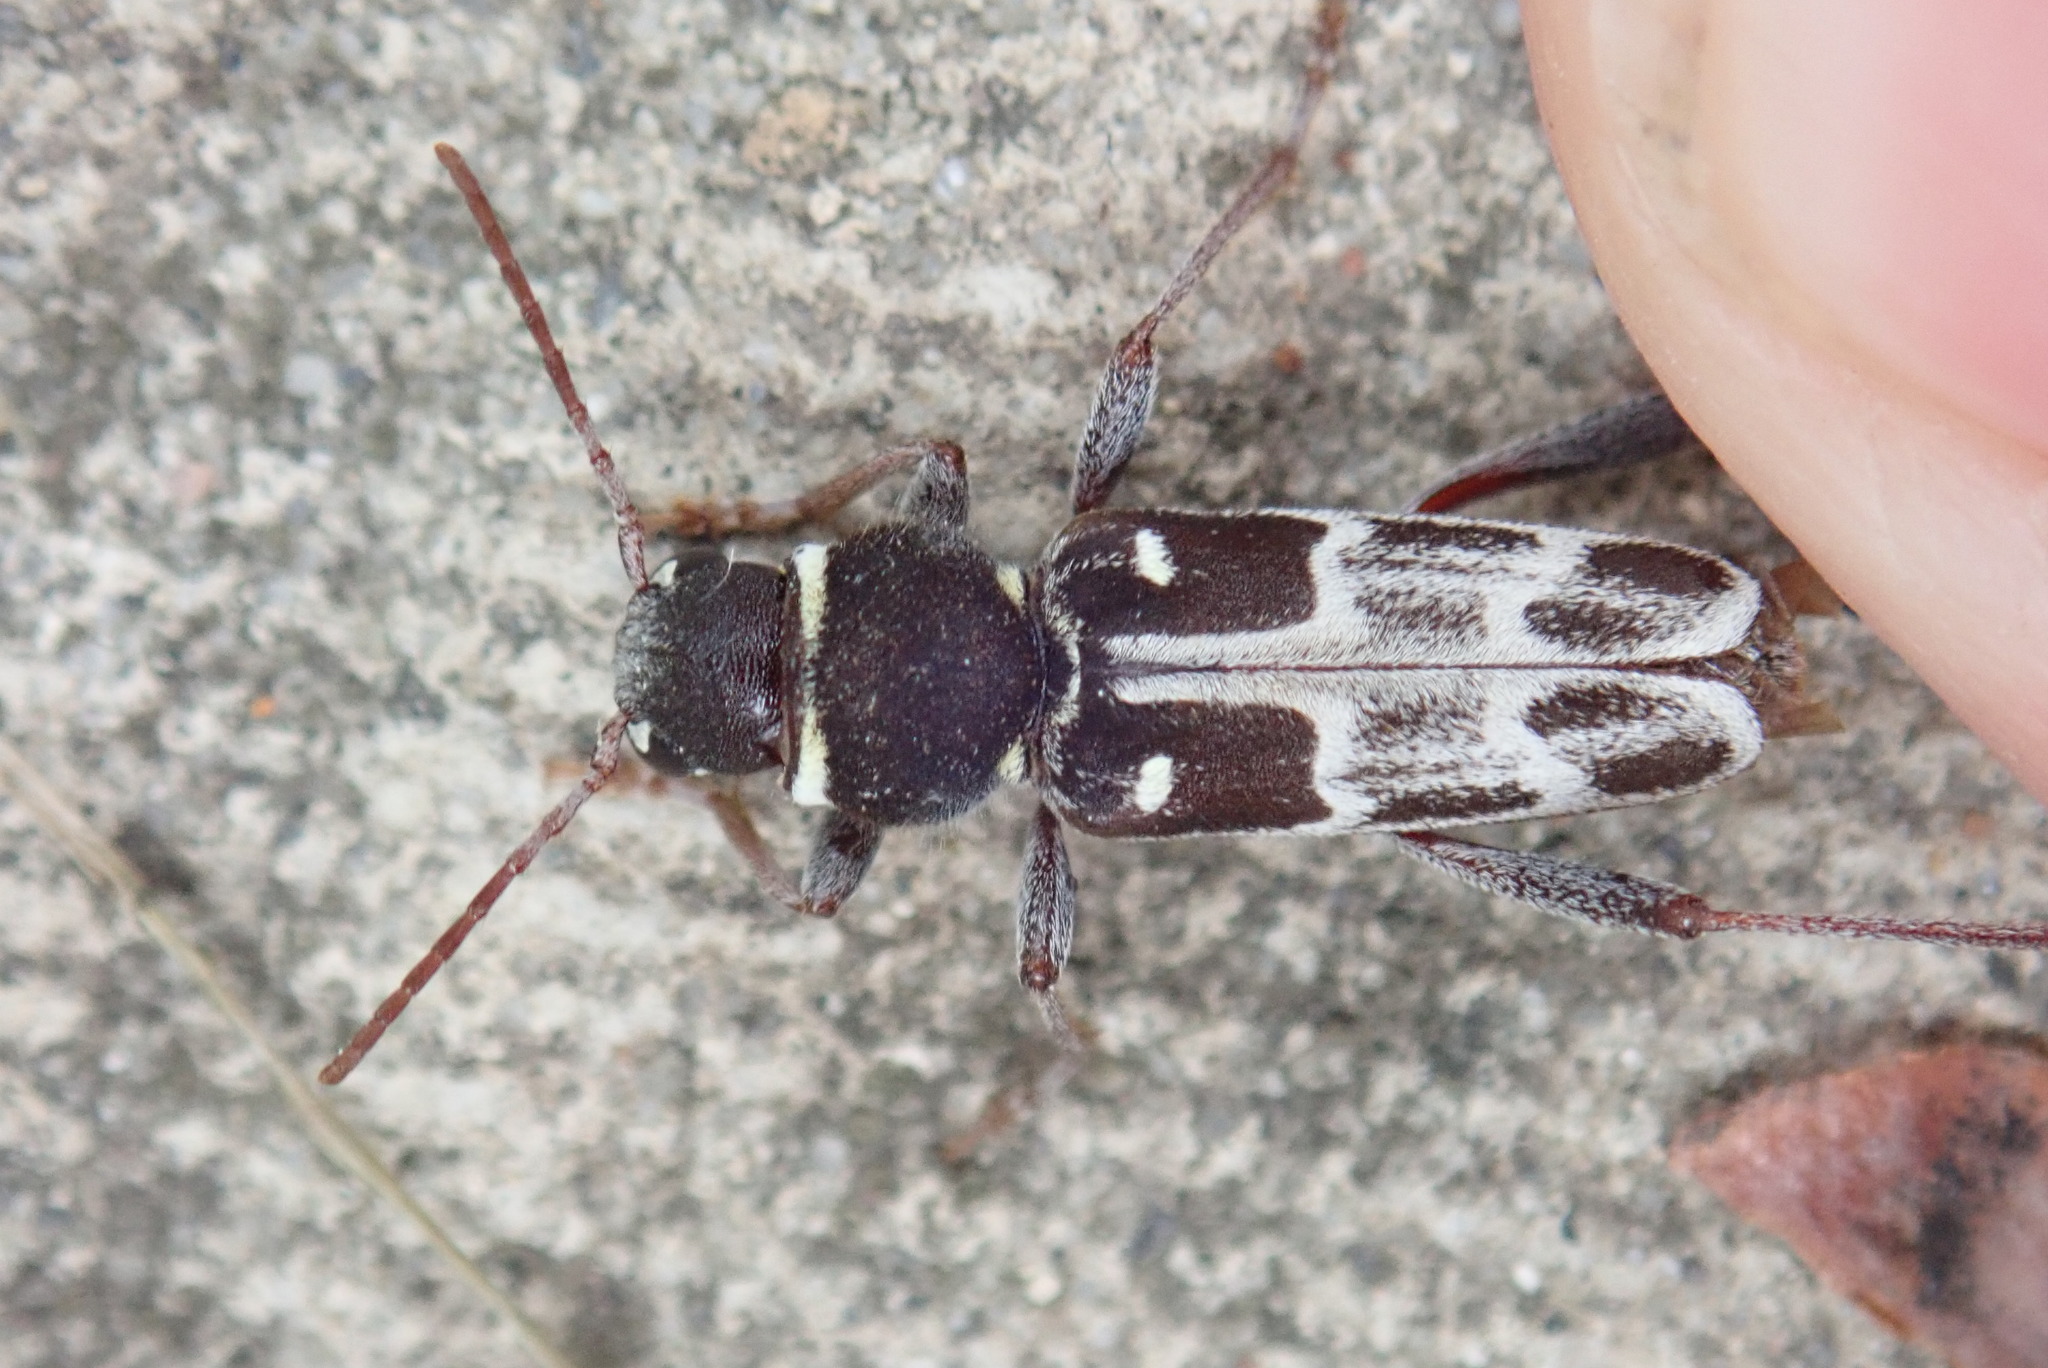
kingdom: Animalia
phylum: Arthropoda
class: Insecta
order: Coleoptera
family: Cerambycidae
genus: Xylotrechus
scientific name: Xylotrechus integer
